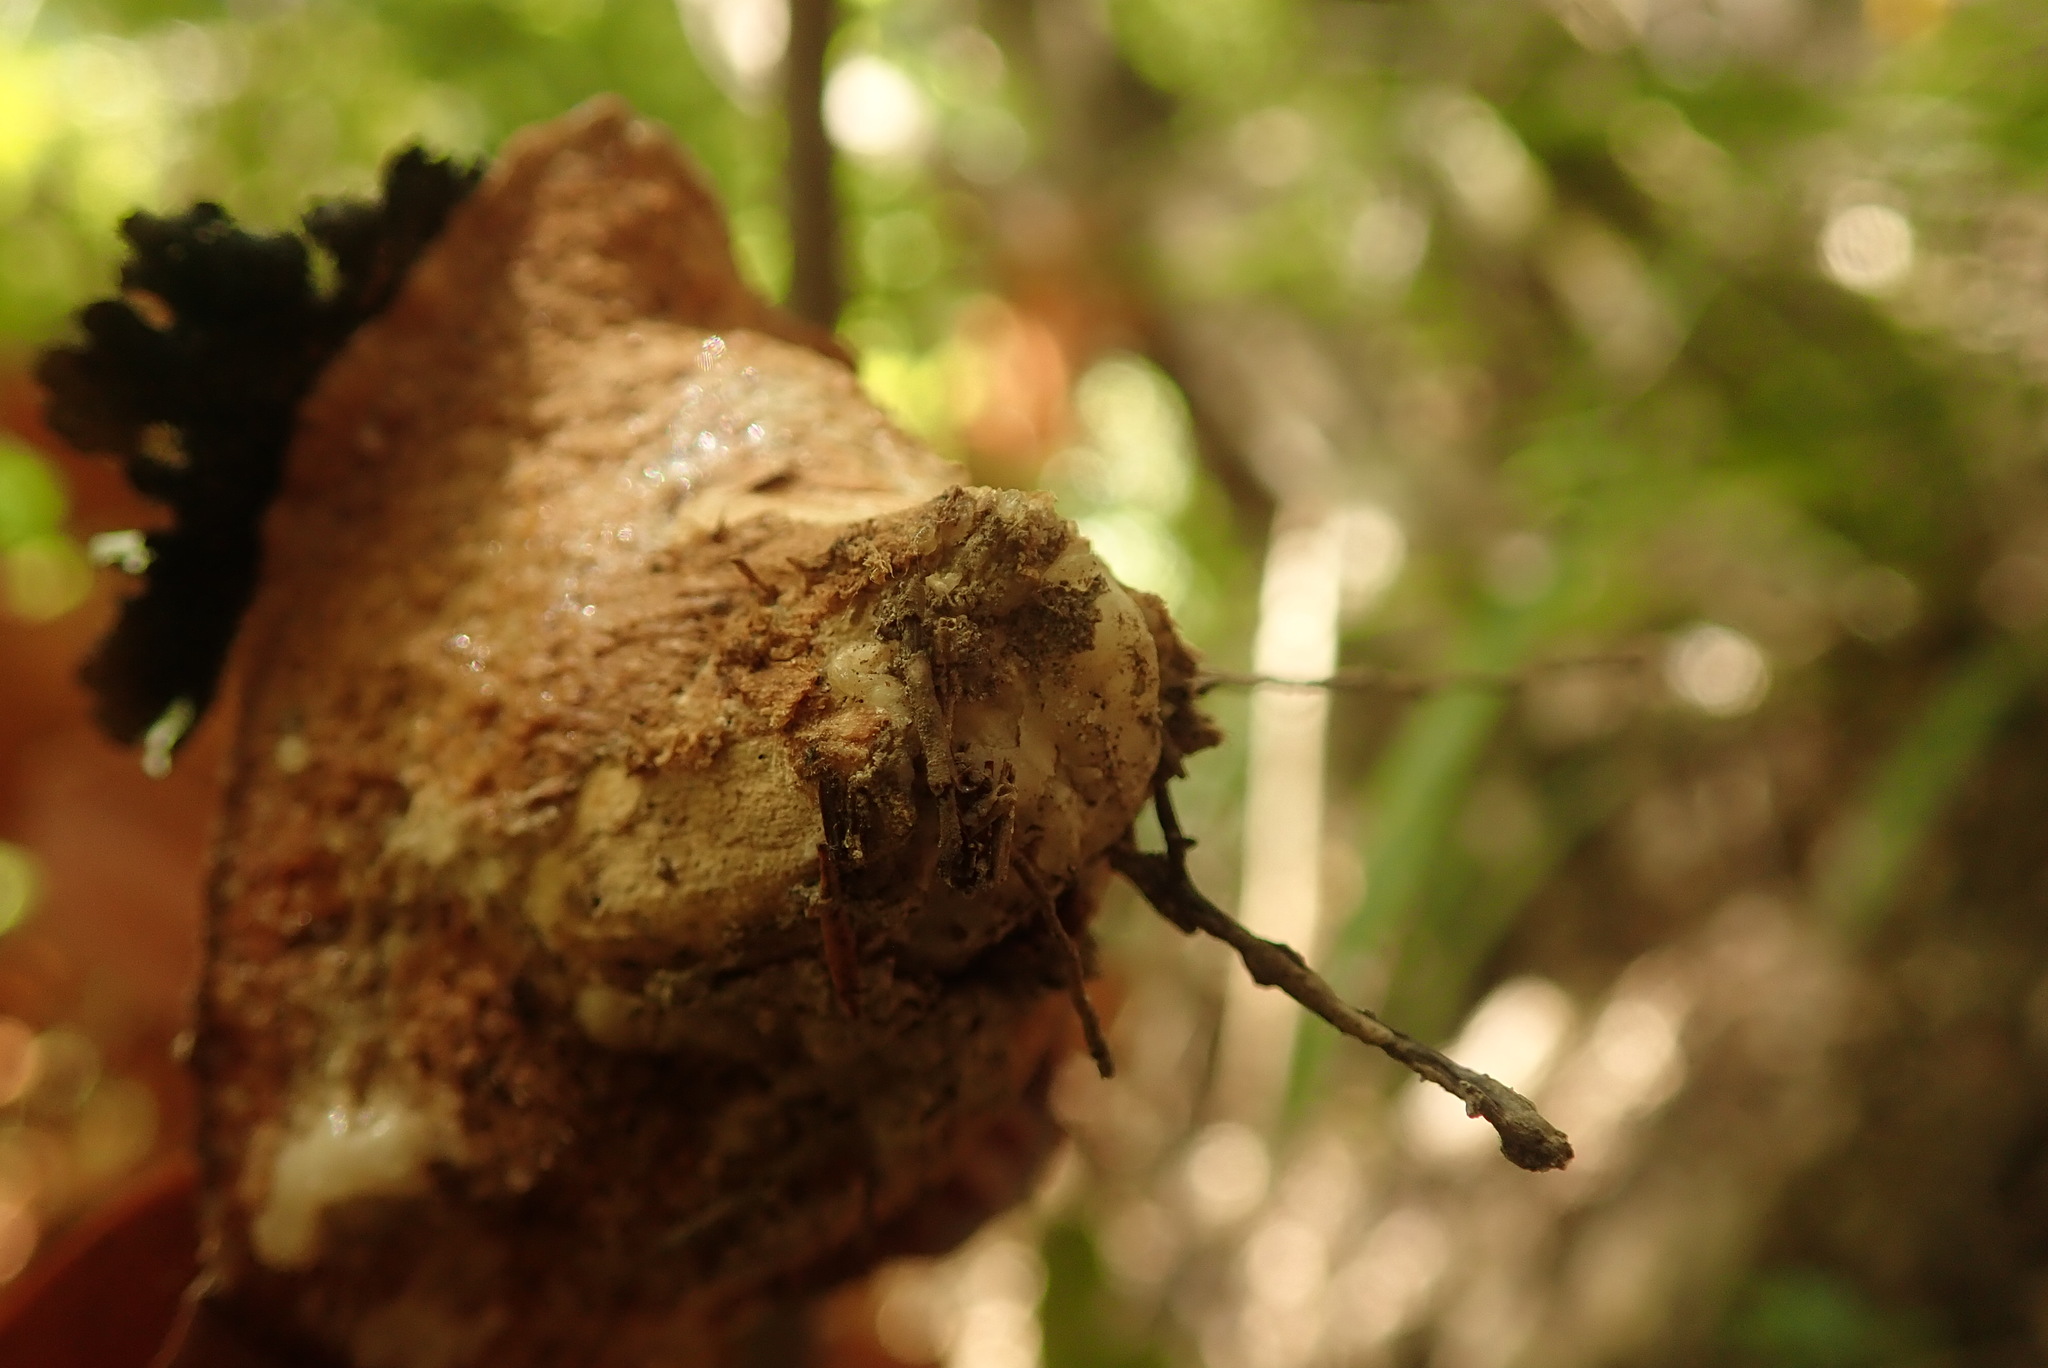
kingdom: Plantae
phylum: Tracheophyta
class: Pinopsida
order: Pinales
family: Araucariaceae
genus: Agathis
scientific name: Agathis australis
